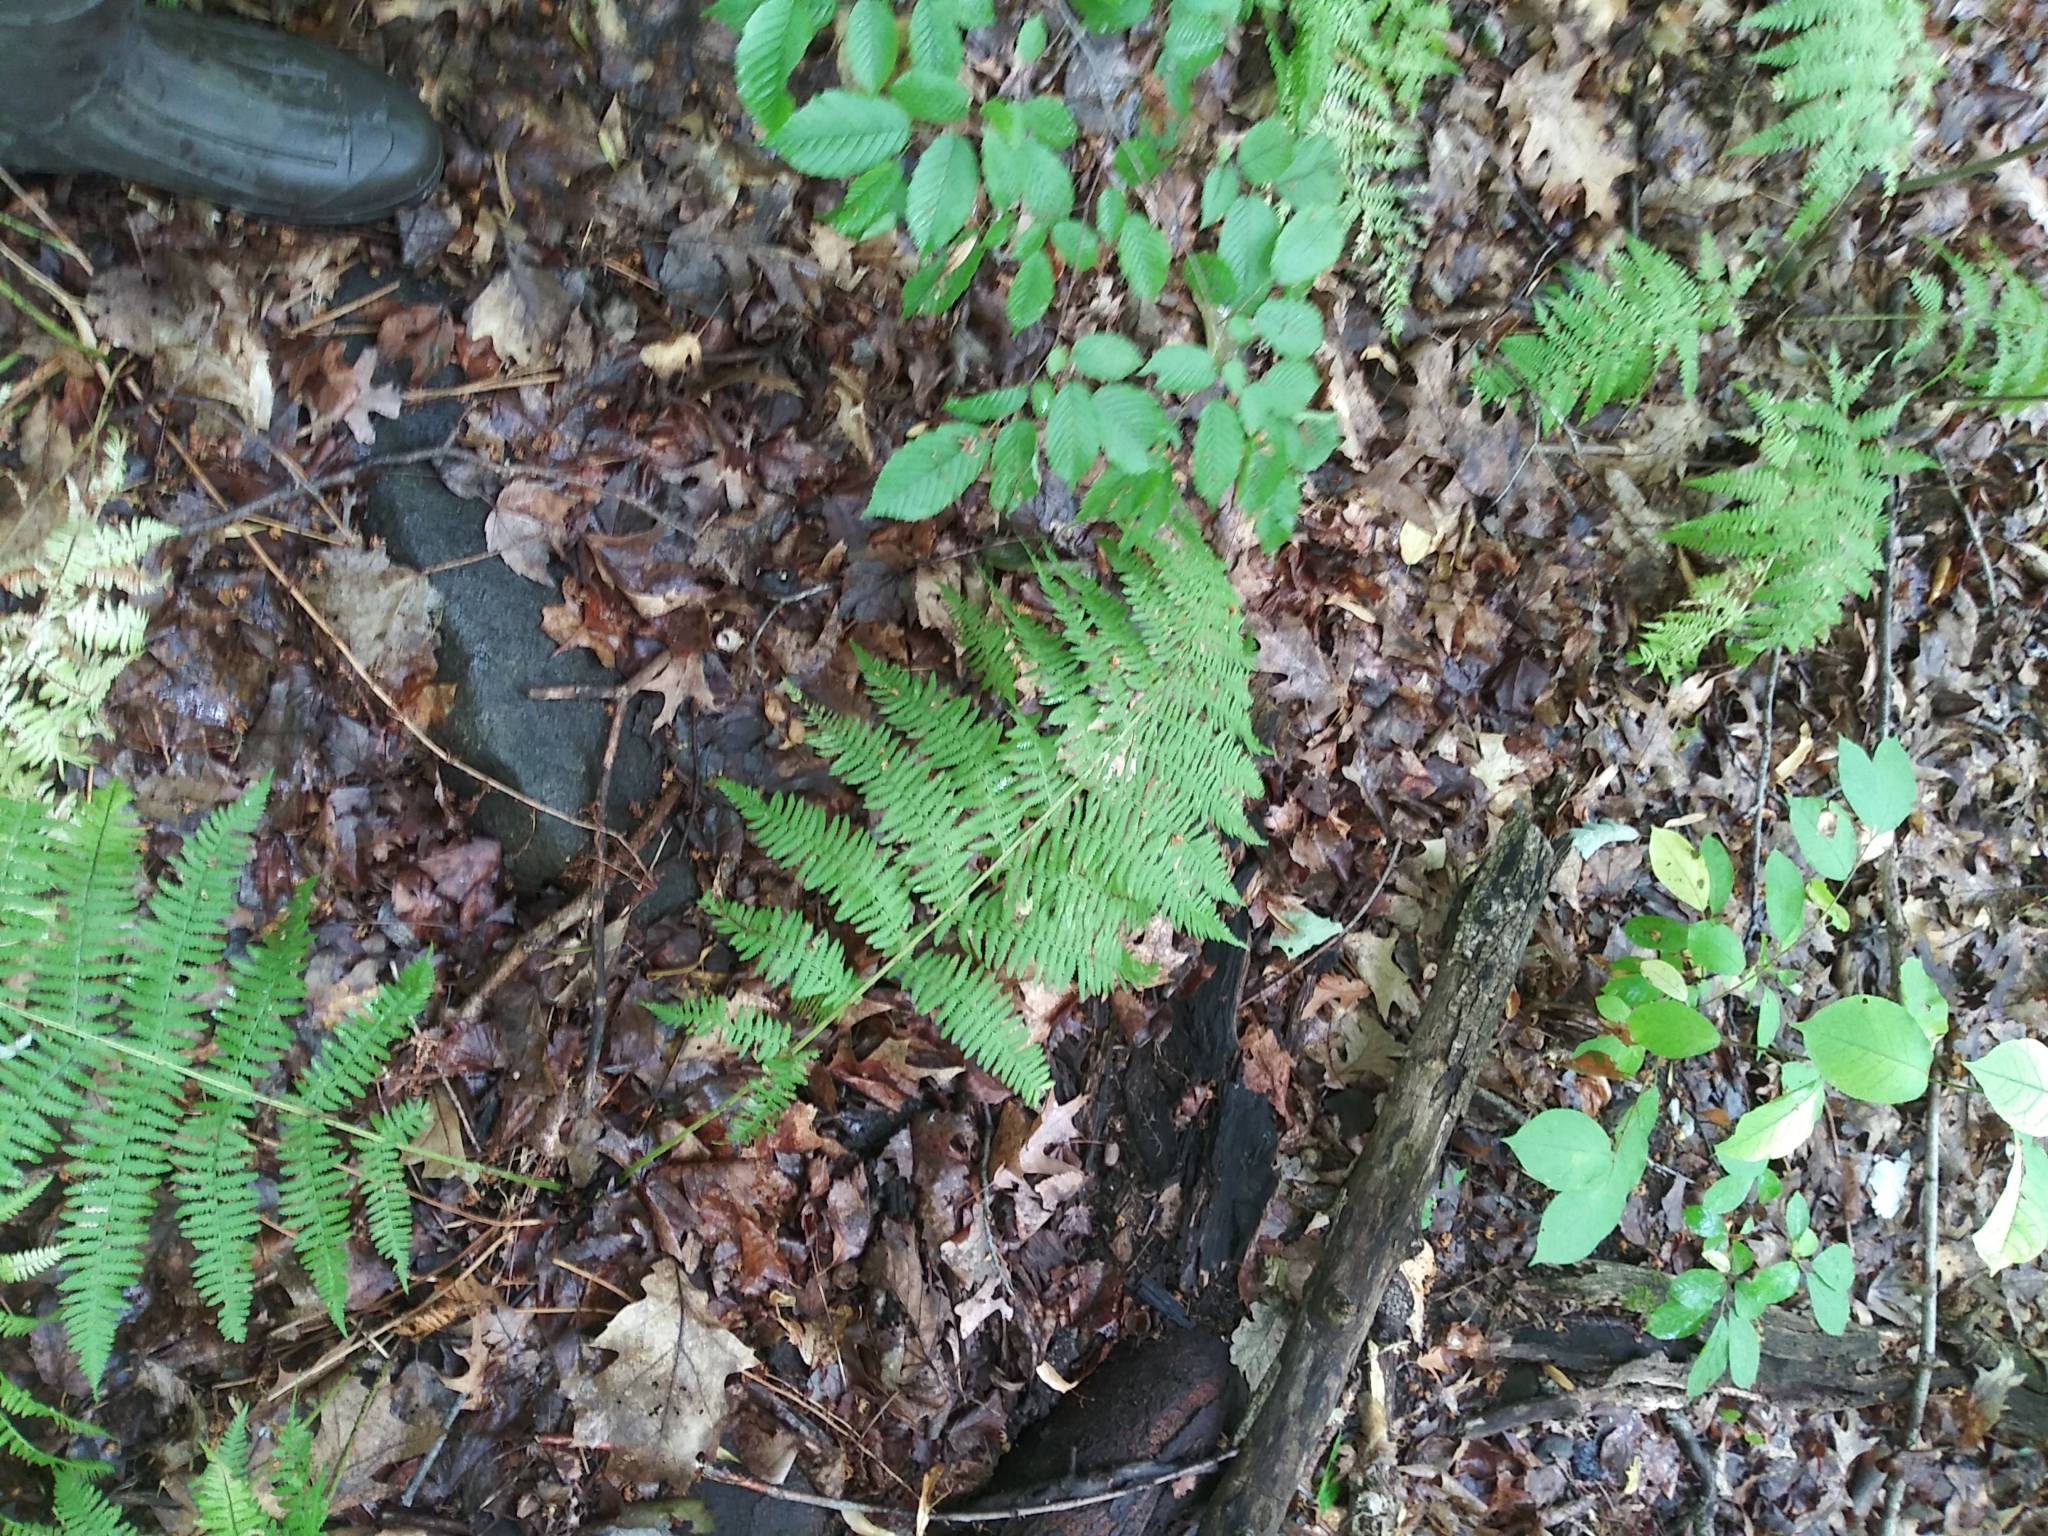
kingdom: Plantae
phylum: Tracheophyta
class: Polypodiopsida
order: Polypodiales
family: Athyriaceae
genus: Athyrium
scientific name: Athyrium angustum
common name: Northern lady fern
